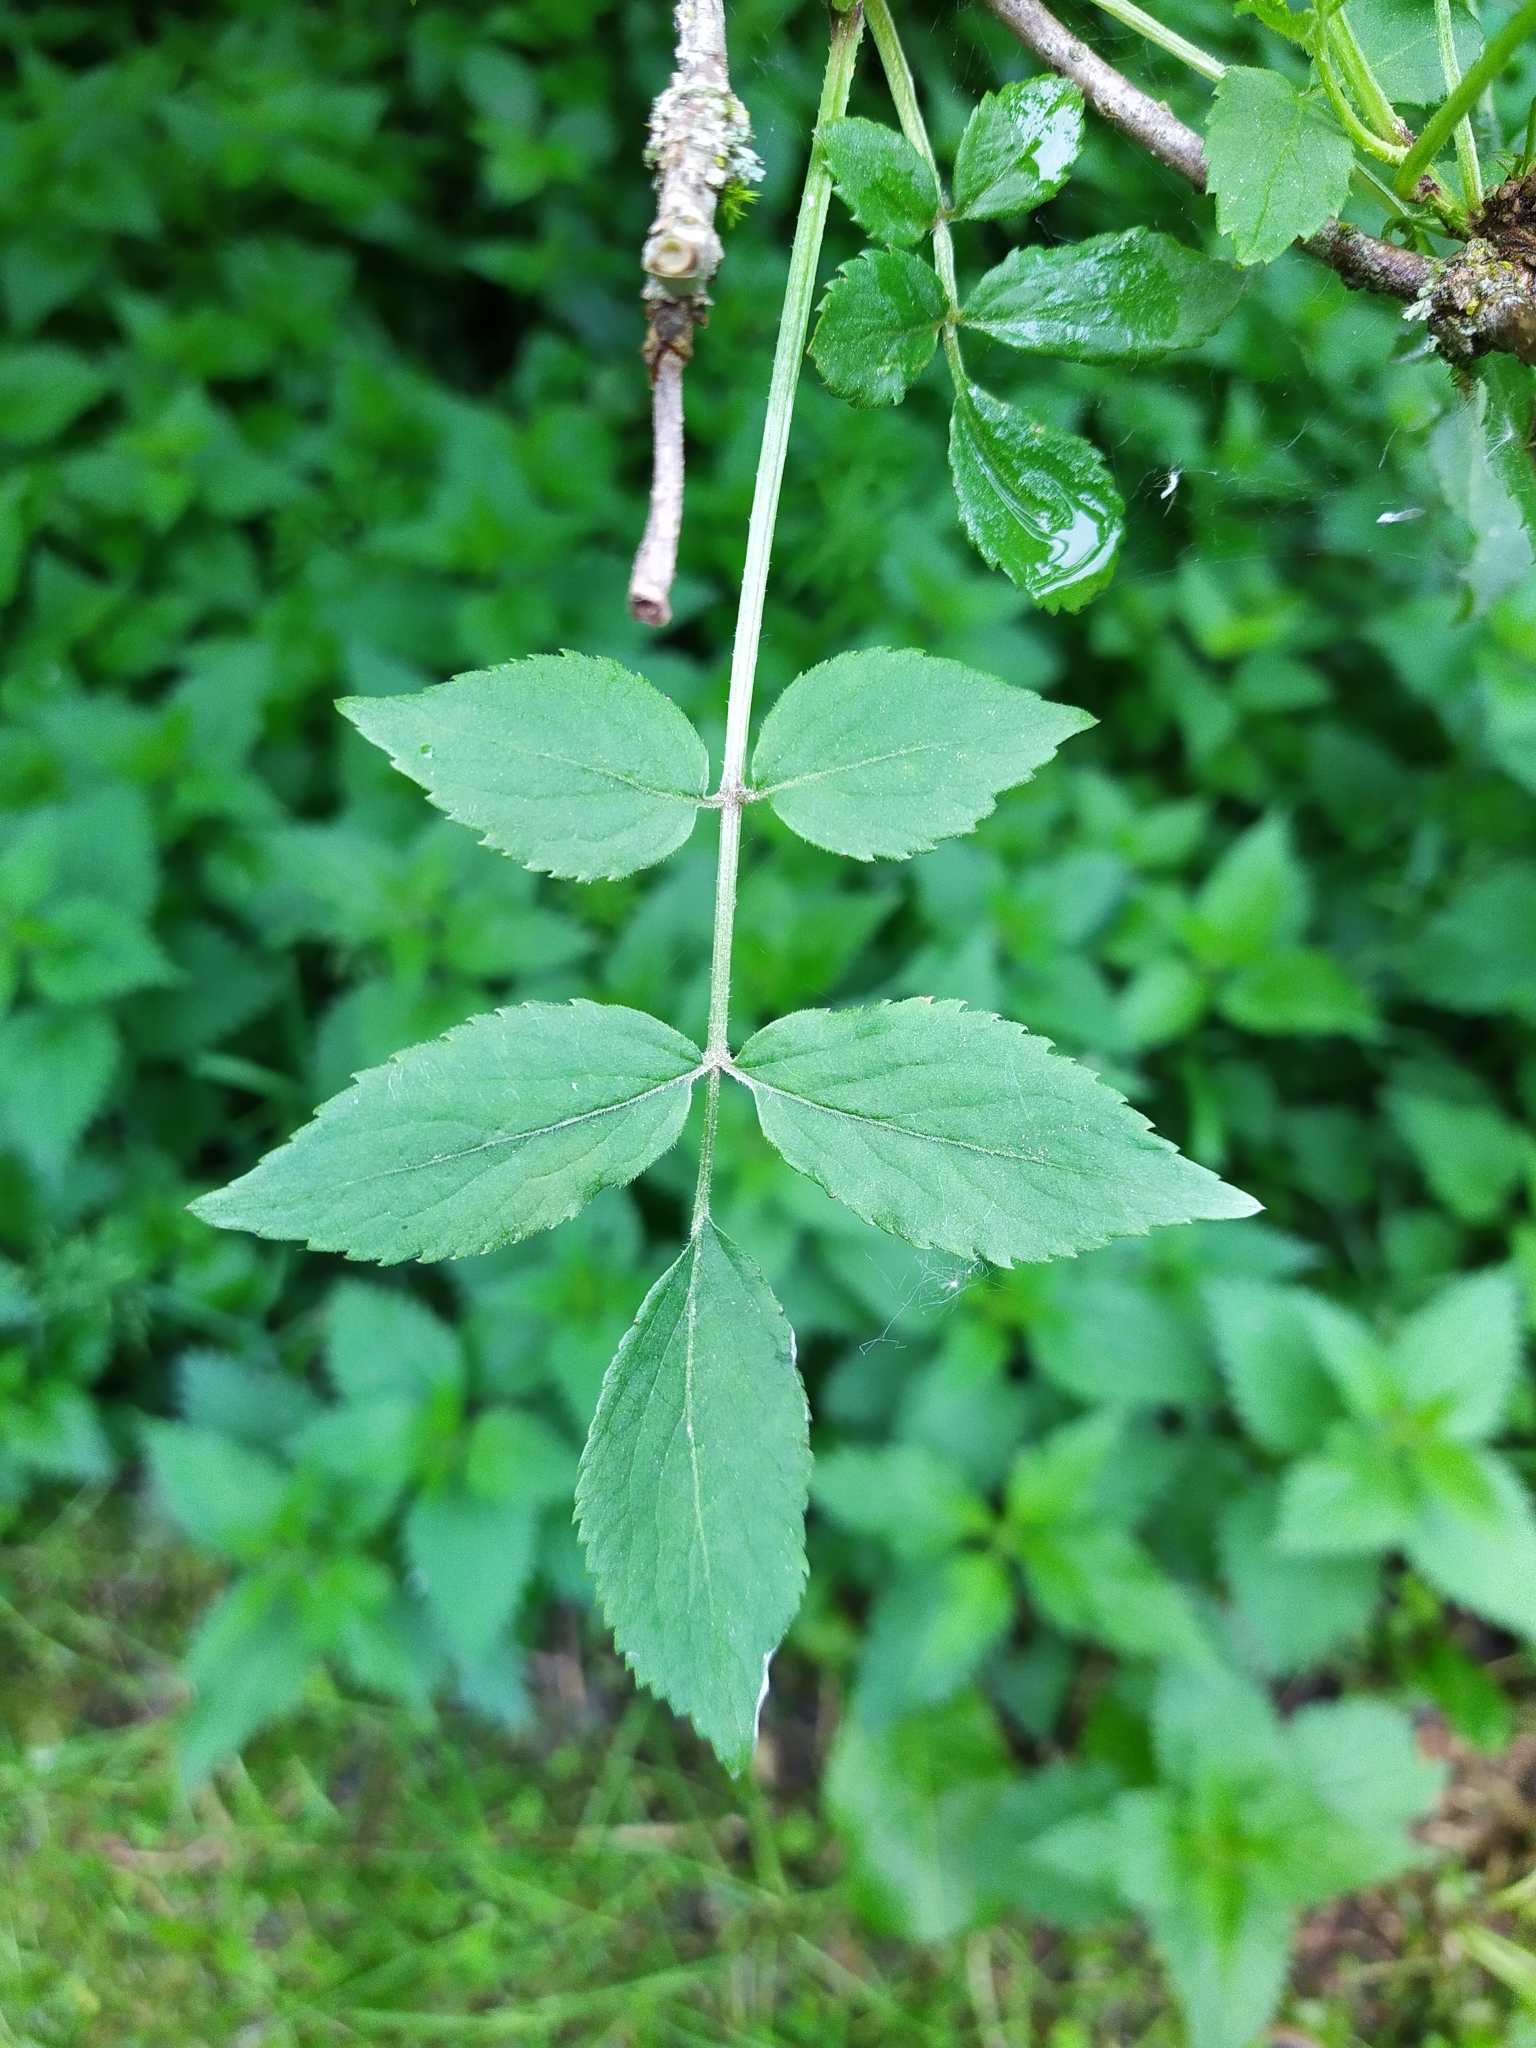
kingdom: Plantae
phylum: Tracheophyta
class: Magnoliopsida
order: Dipsacales
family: Viburnaceae
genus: Sambucus
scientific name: Sambucus nigra
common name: Elder
